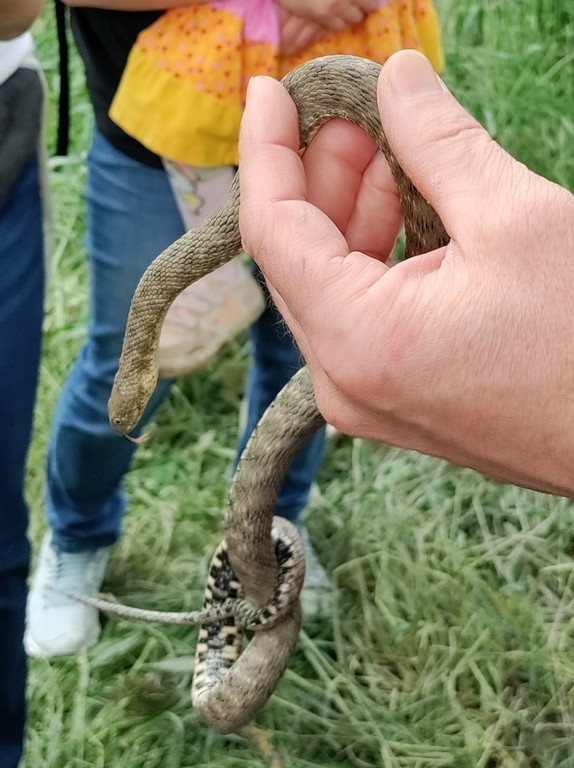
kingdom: Animalia
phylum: Chordata
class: Squamata
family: Colubridae
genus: Natrix
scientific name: Natrix tessellata
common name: Dice snake
